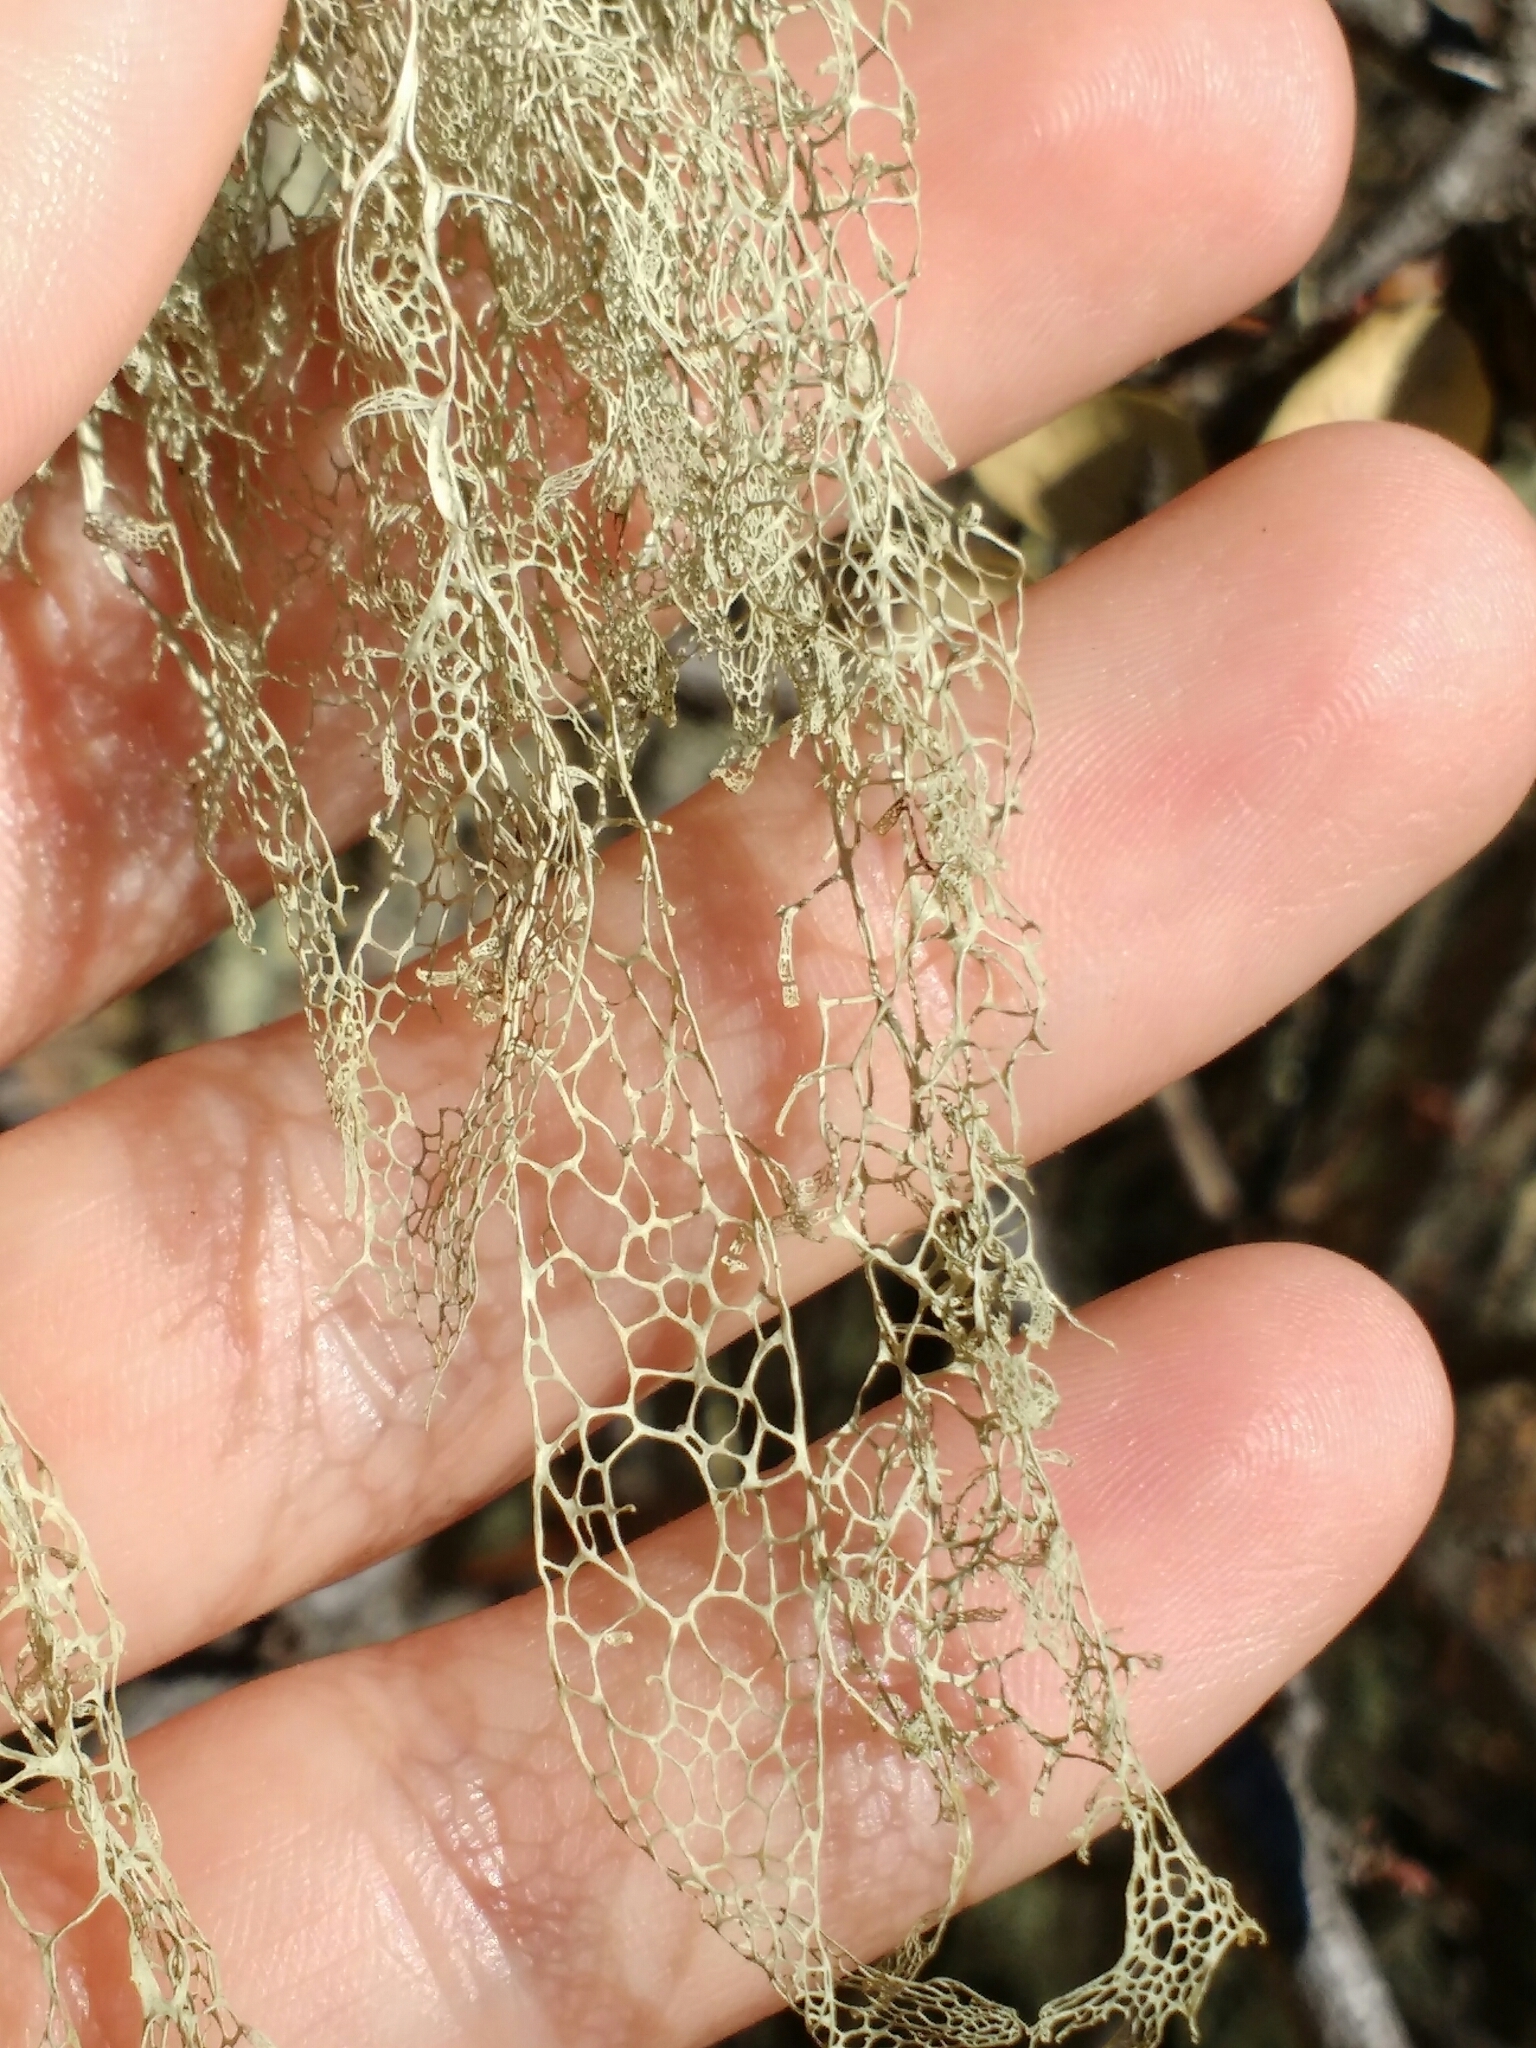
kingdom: Fungi
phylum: Ascomycota
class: Lecanoromycetes
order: Lecanorales
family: Ramalinaceae
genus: Ramalina
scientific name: Ramalina menziesii
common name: Lace lichen
